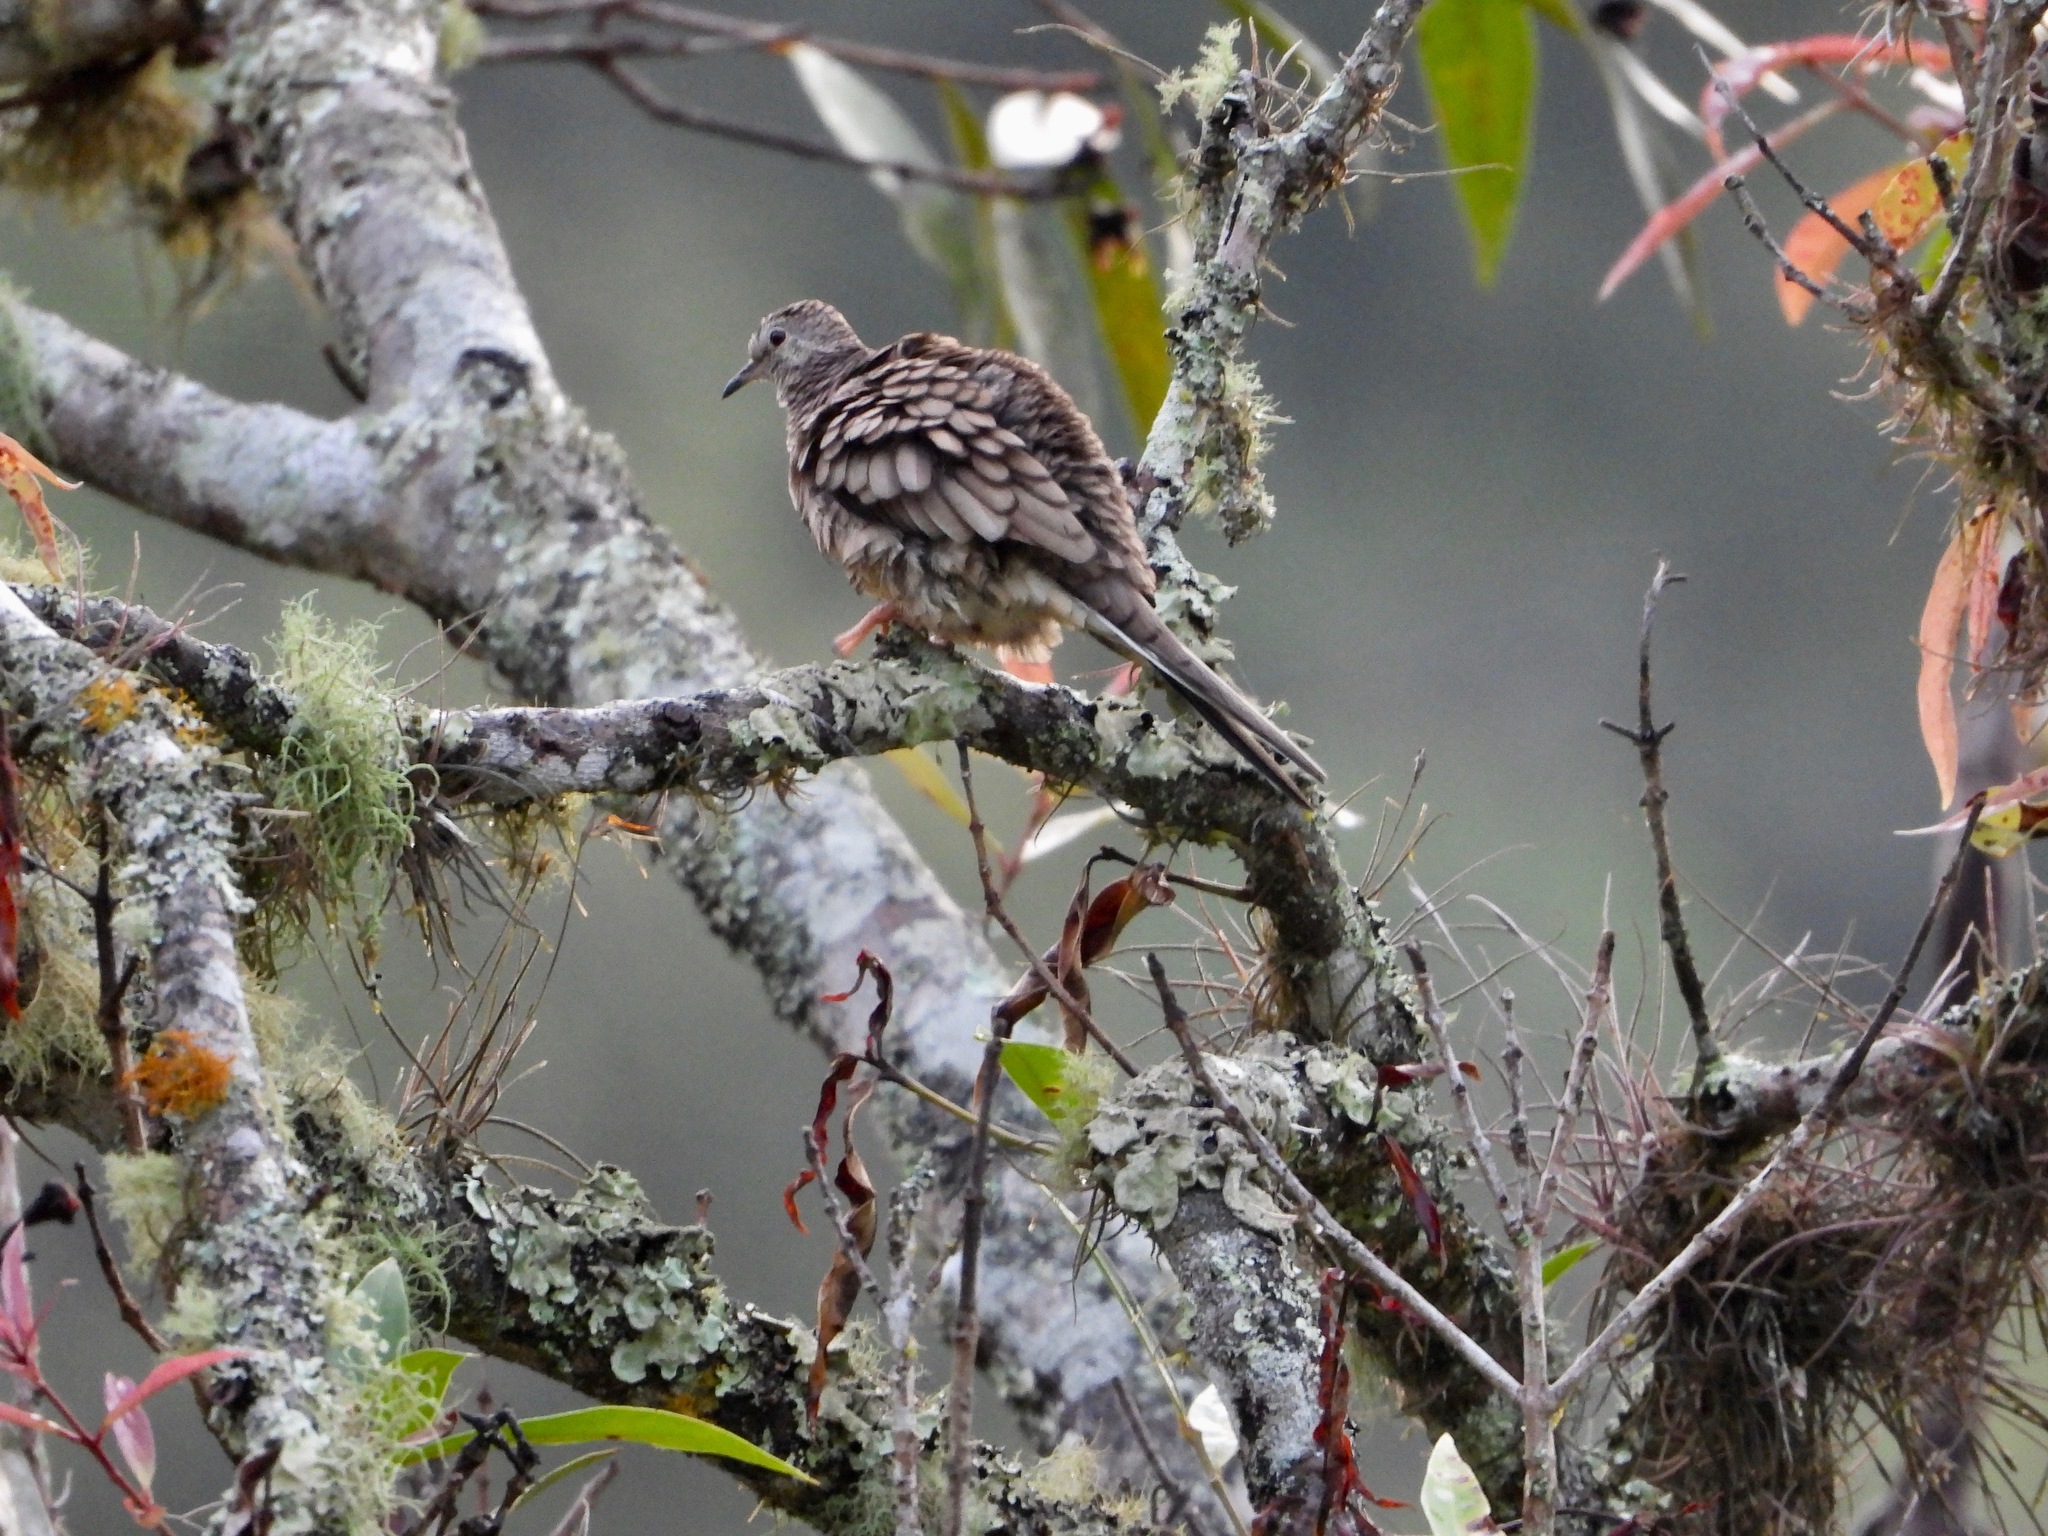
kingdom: Animalia
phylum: Chordata
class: Aves
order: Columbiformes
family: Columbidae
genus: Columbina
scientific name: Columbina inca
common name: Inca dove
